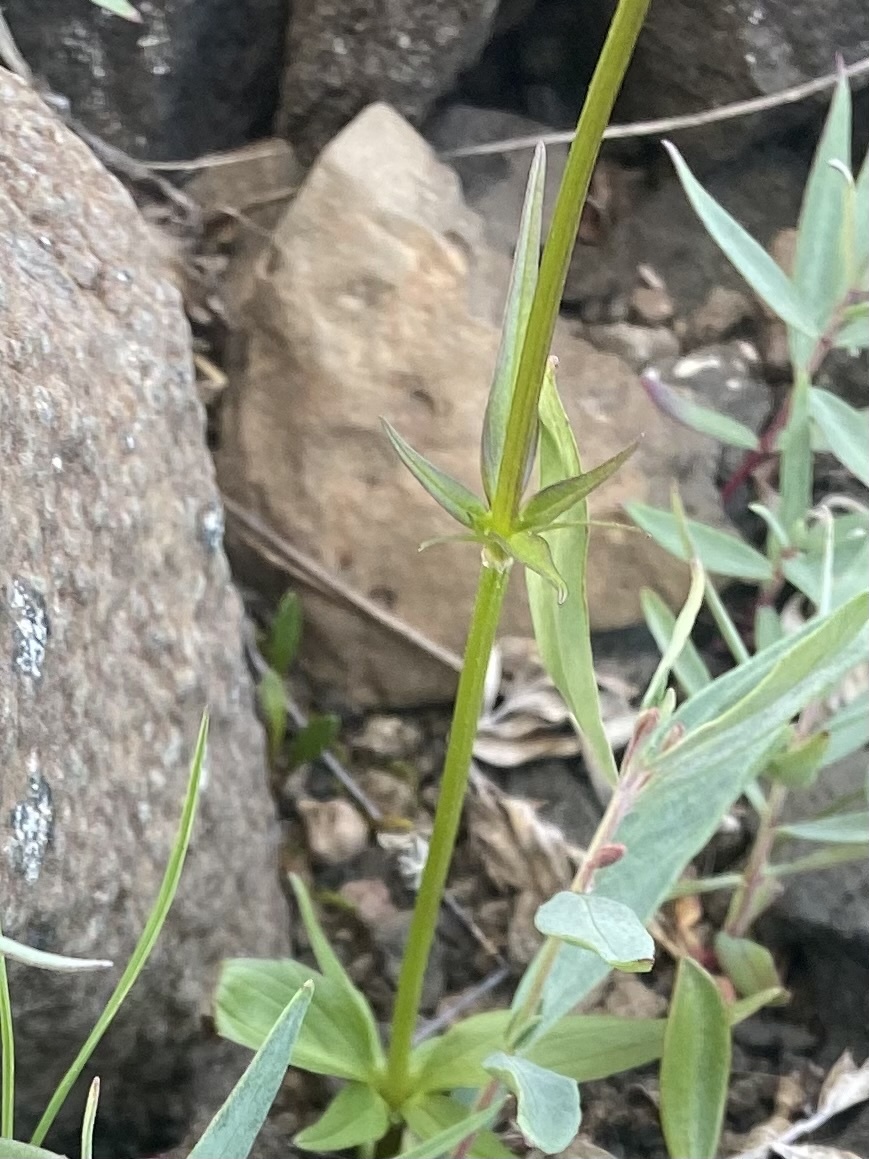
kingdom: Plantae
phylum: Tracheophyta
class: Magnoliopsida
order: Dipsacales
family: Caprifoliaceae
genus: Valeriana
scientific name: Valeriana capitata
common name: Capitate valerian
